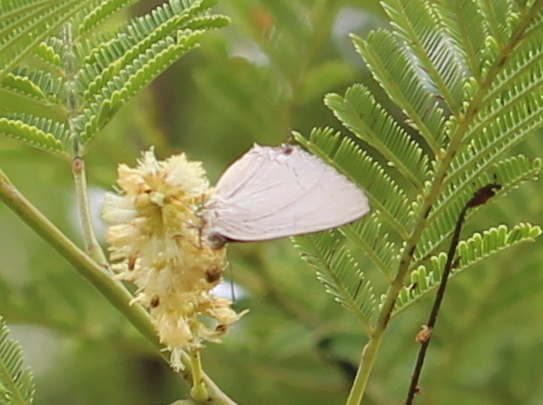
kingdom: Animalia
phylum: Arthropoda
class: Insecta
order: Lepidoptera
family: Lycaenidae
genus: Tajuria
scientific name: Tajuria jehana
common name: Plains blue royal
